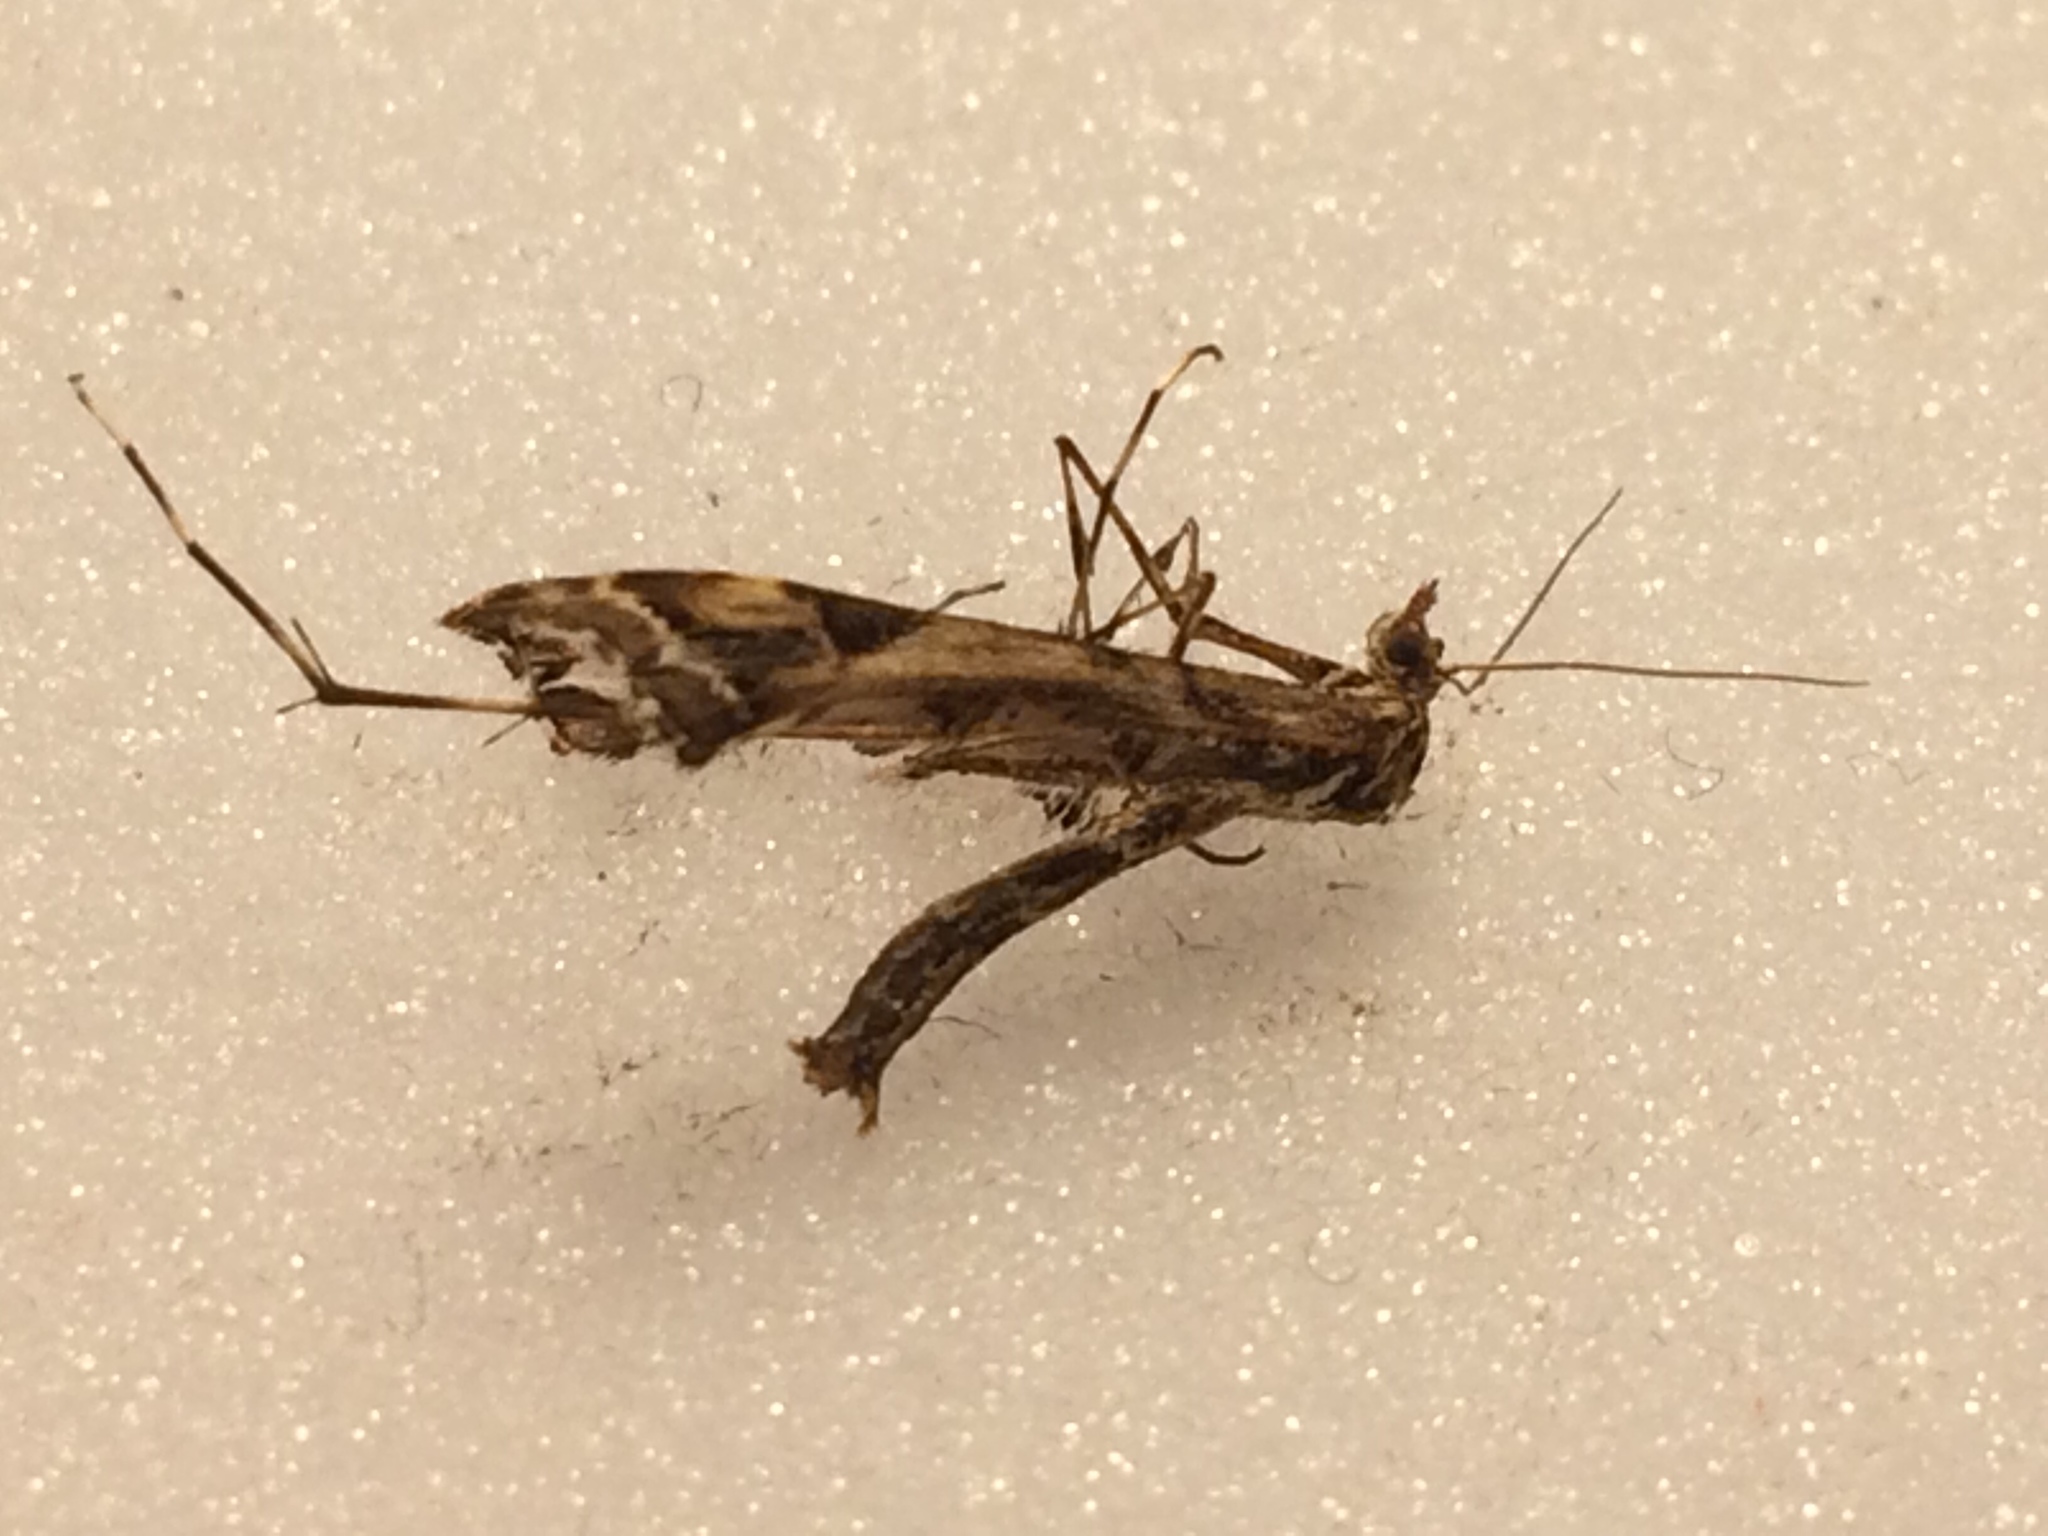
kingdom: Animalia
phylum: Arthropoda
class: Insecta
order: Lepidoptera
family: Pterophoridae
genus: Amblyptilia
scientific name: Amblyptilia acanthadactyla
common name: Beautiful plume
